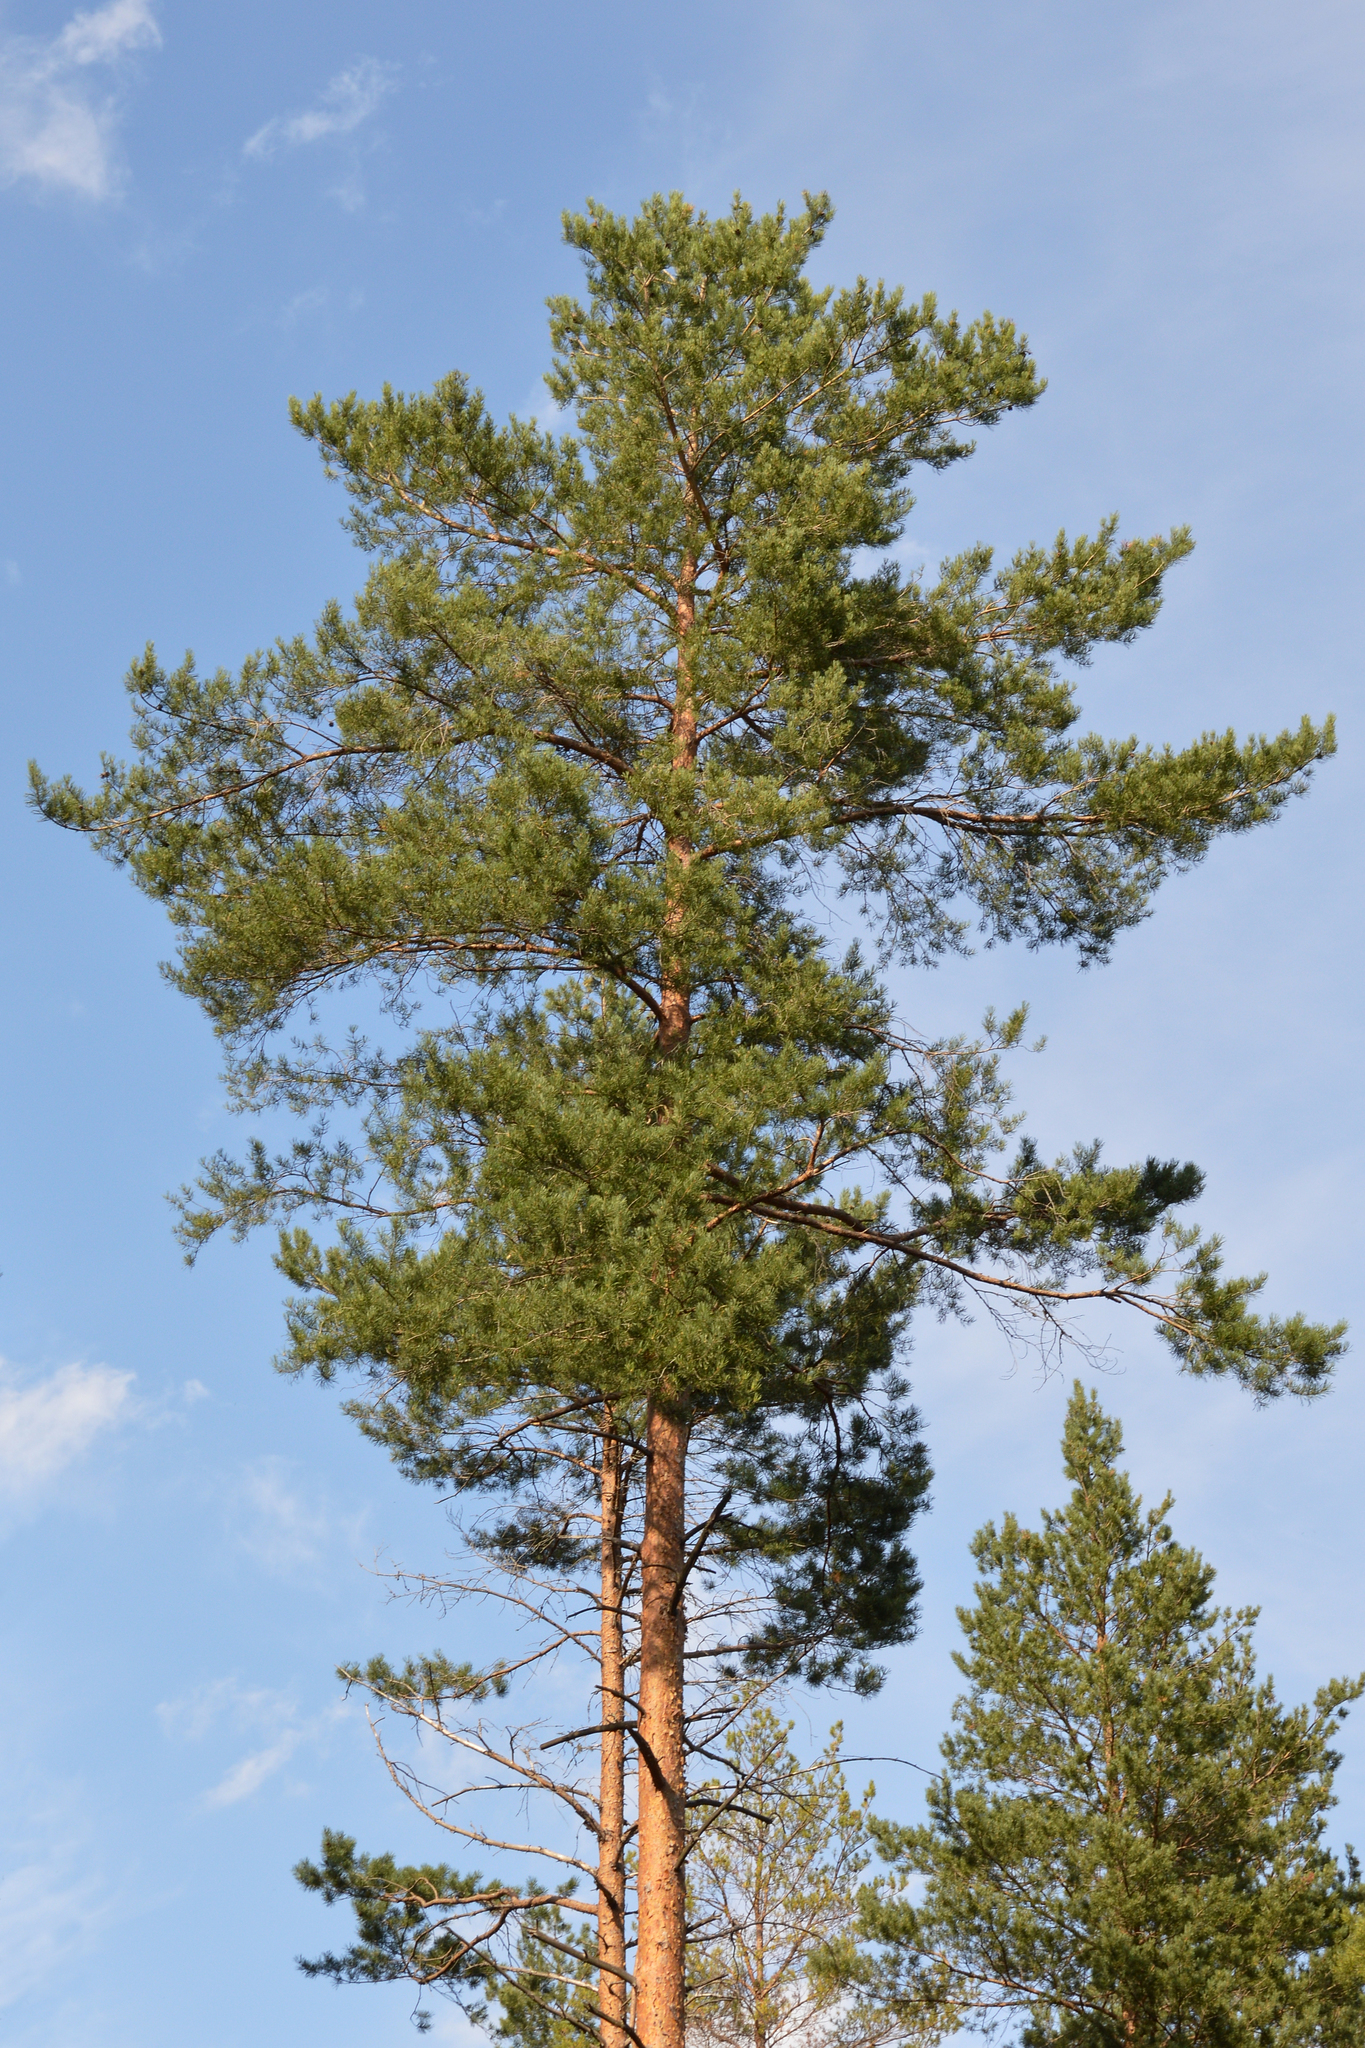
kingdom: Plantae
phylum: Tracheophyta
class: Pinopsida
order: Pinales
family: Pinaceae
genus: Pinus
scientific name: Pinus sylvestris
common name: Scots pine
